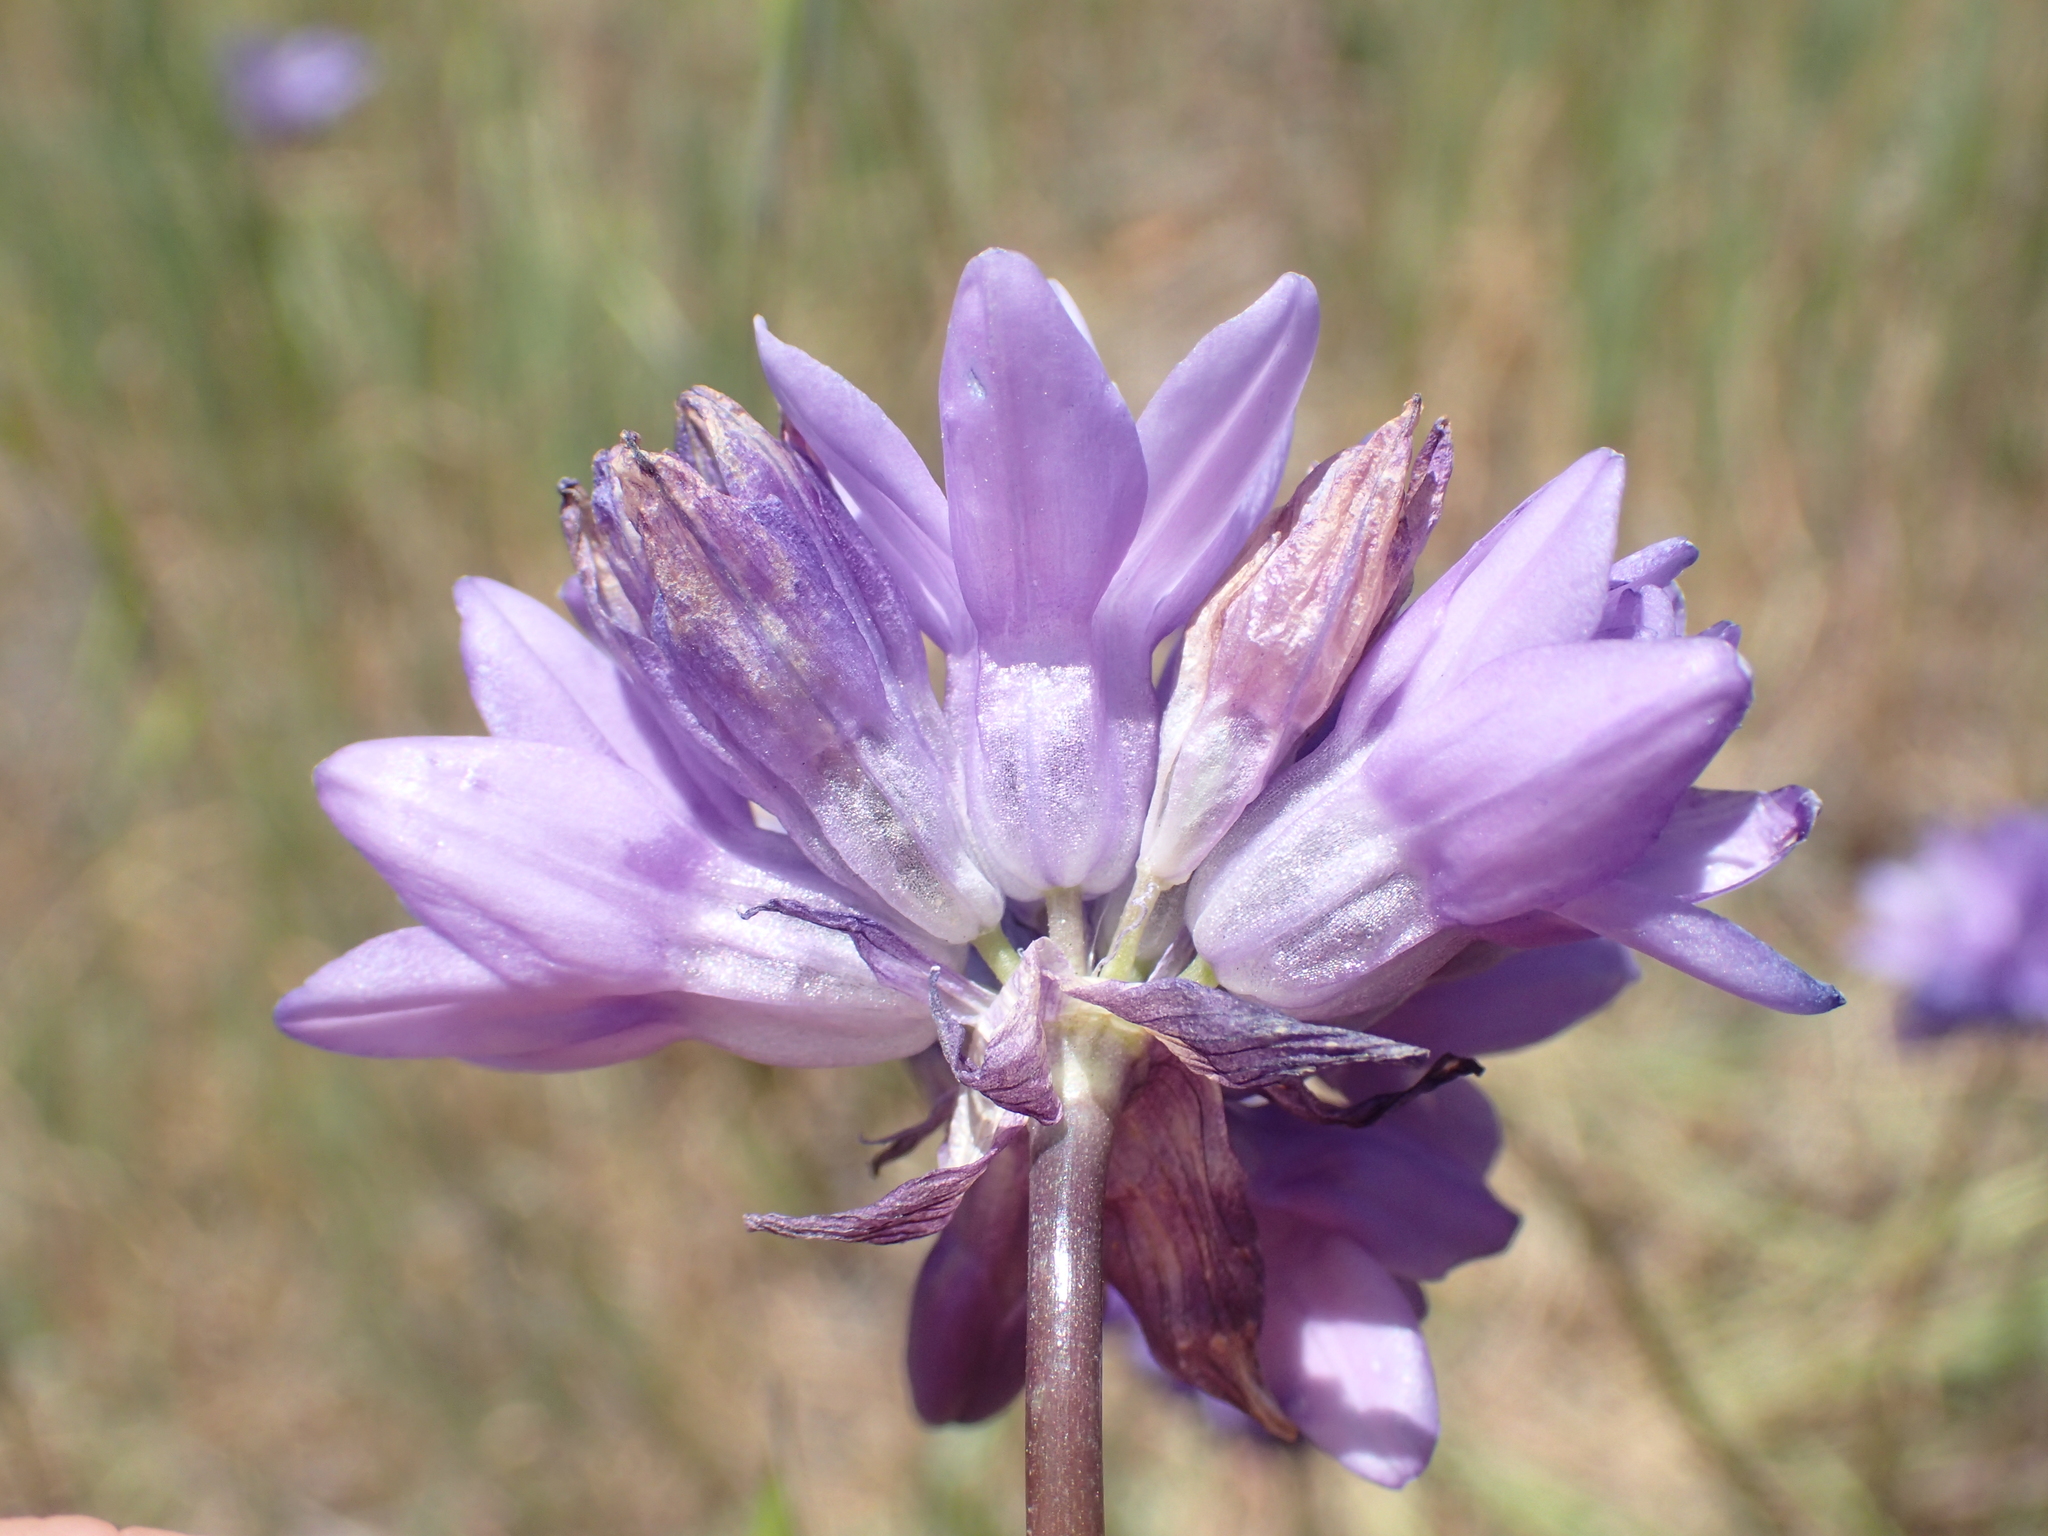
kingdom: Plantae
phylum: Tracheophyta
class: Liliopsida
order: Asparagales
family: Asparagaceae
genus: Dipterostemon
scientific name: Dipterostemon capitatus
